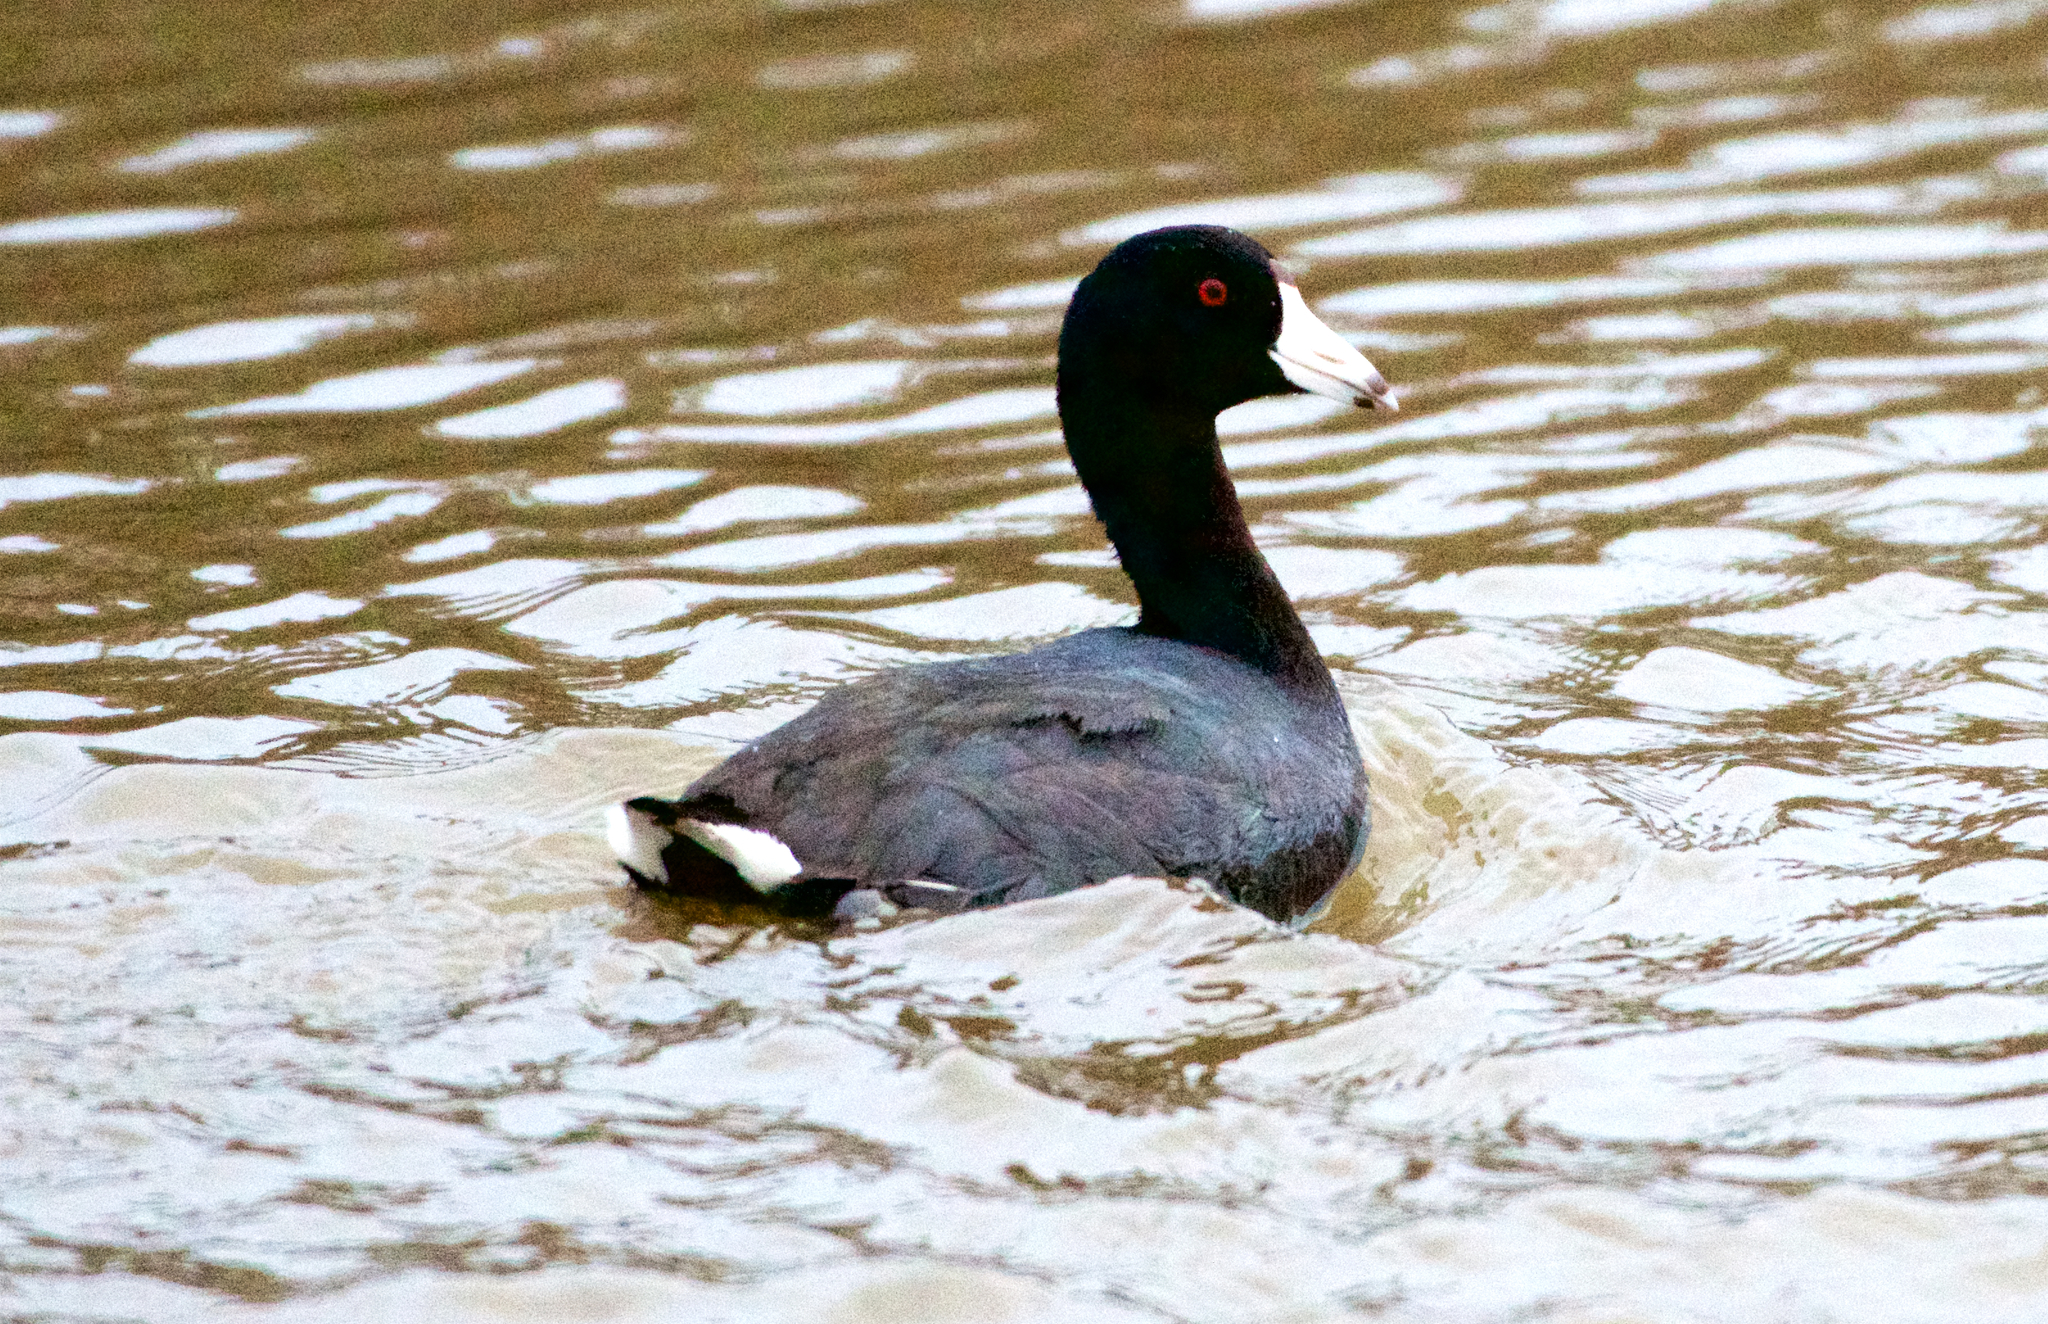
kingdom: Animalia
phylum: Chordata
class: Aves
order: Gruiformes
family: Rallidae
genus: Fulica
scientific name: Fulica americana
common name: American coot
